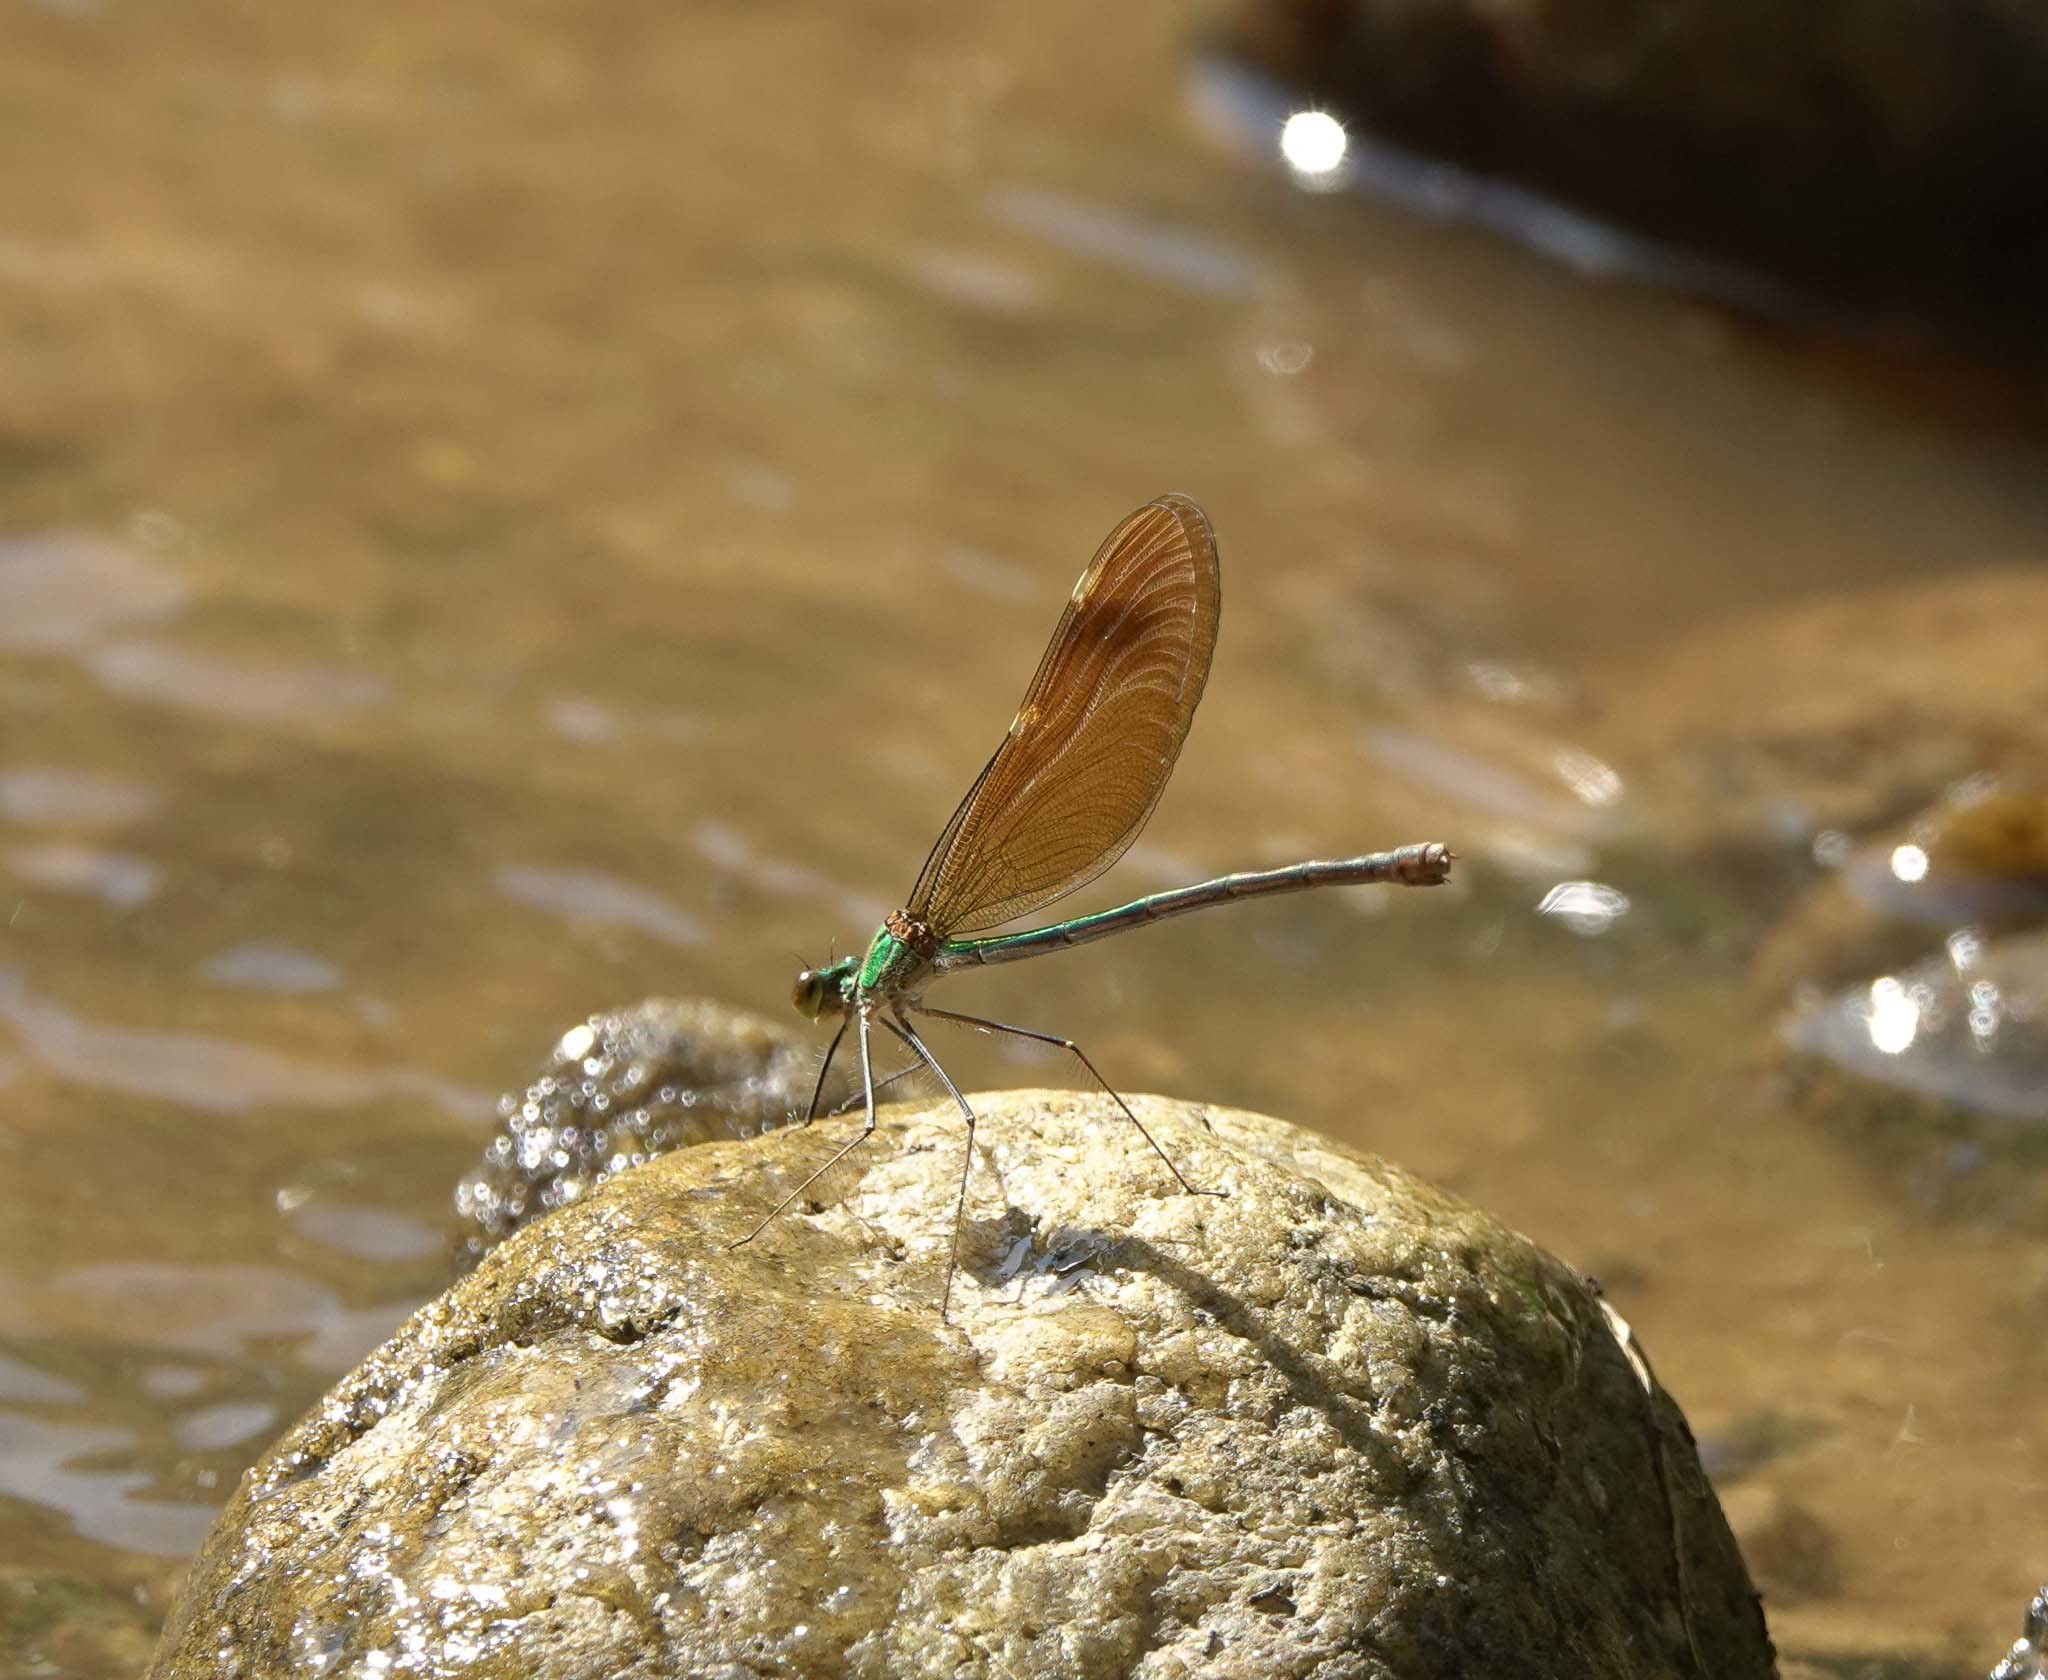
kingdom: Animalia
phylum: Arthropoda
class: Insecta
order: Odonata
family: Calopterygidae
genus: Neurobasis
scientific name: Neurobasis chinensis
